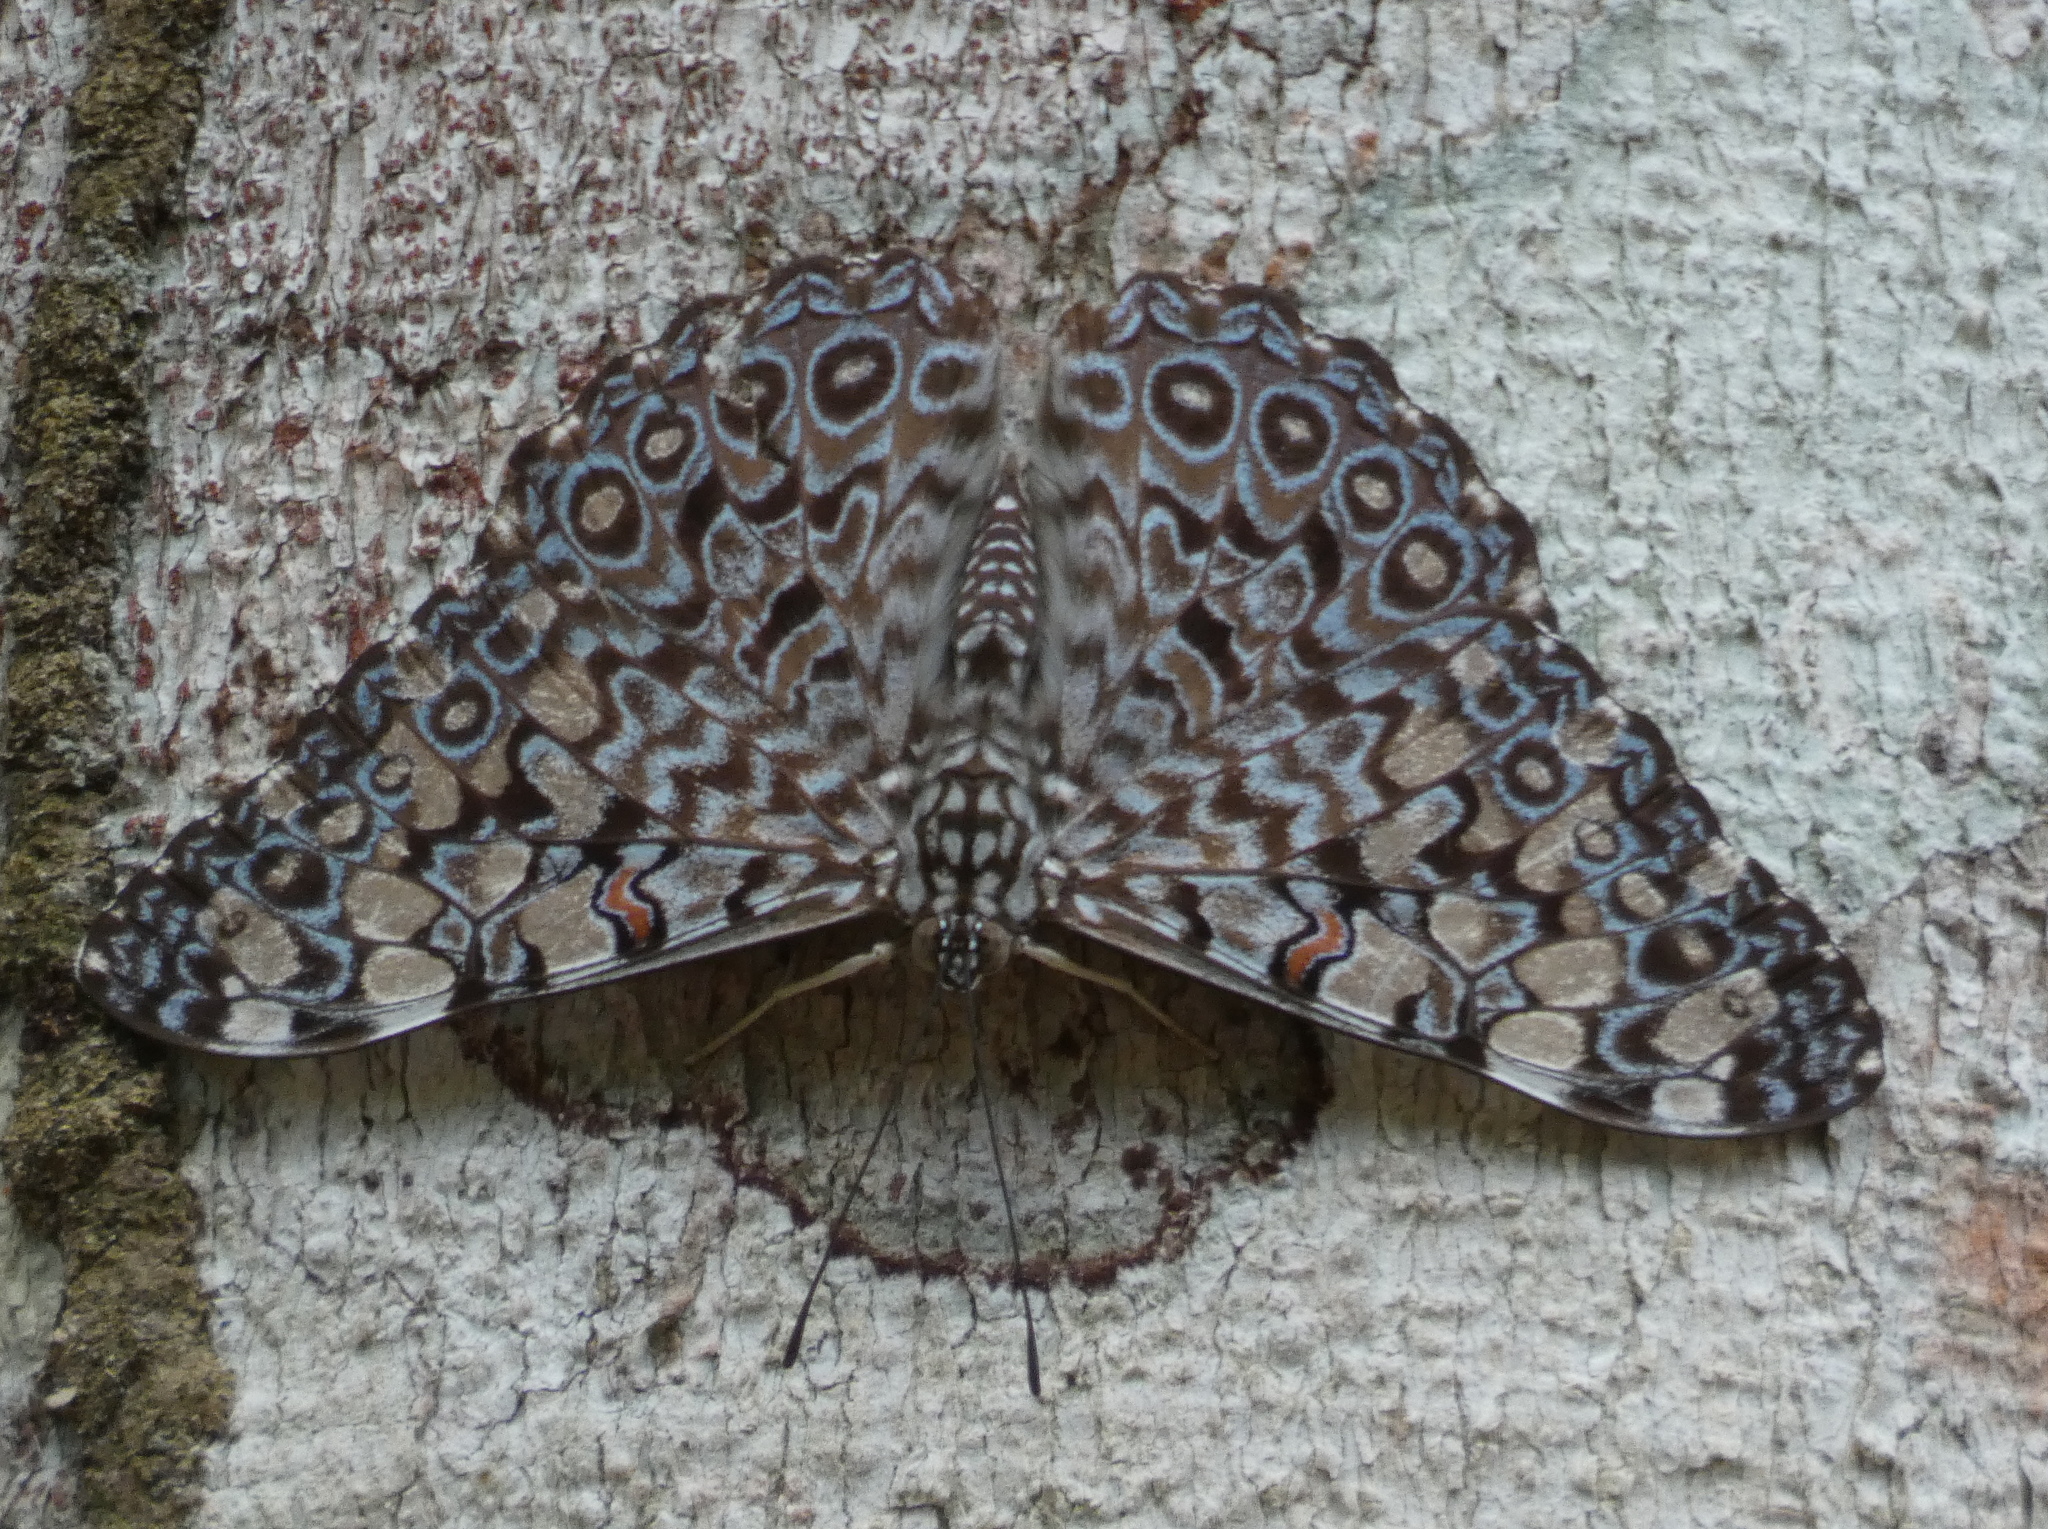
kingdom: Animalia
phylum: Arthropoda
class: Insecta
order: Lepidoptera
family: Nymphalidae
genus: Hamadryas
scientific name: Hamadryas feronia
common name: Variable cracker
